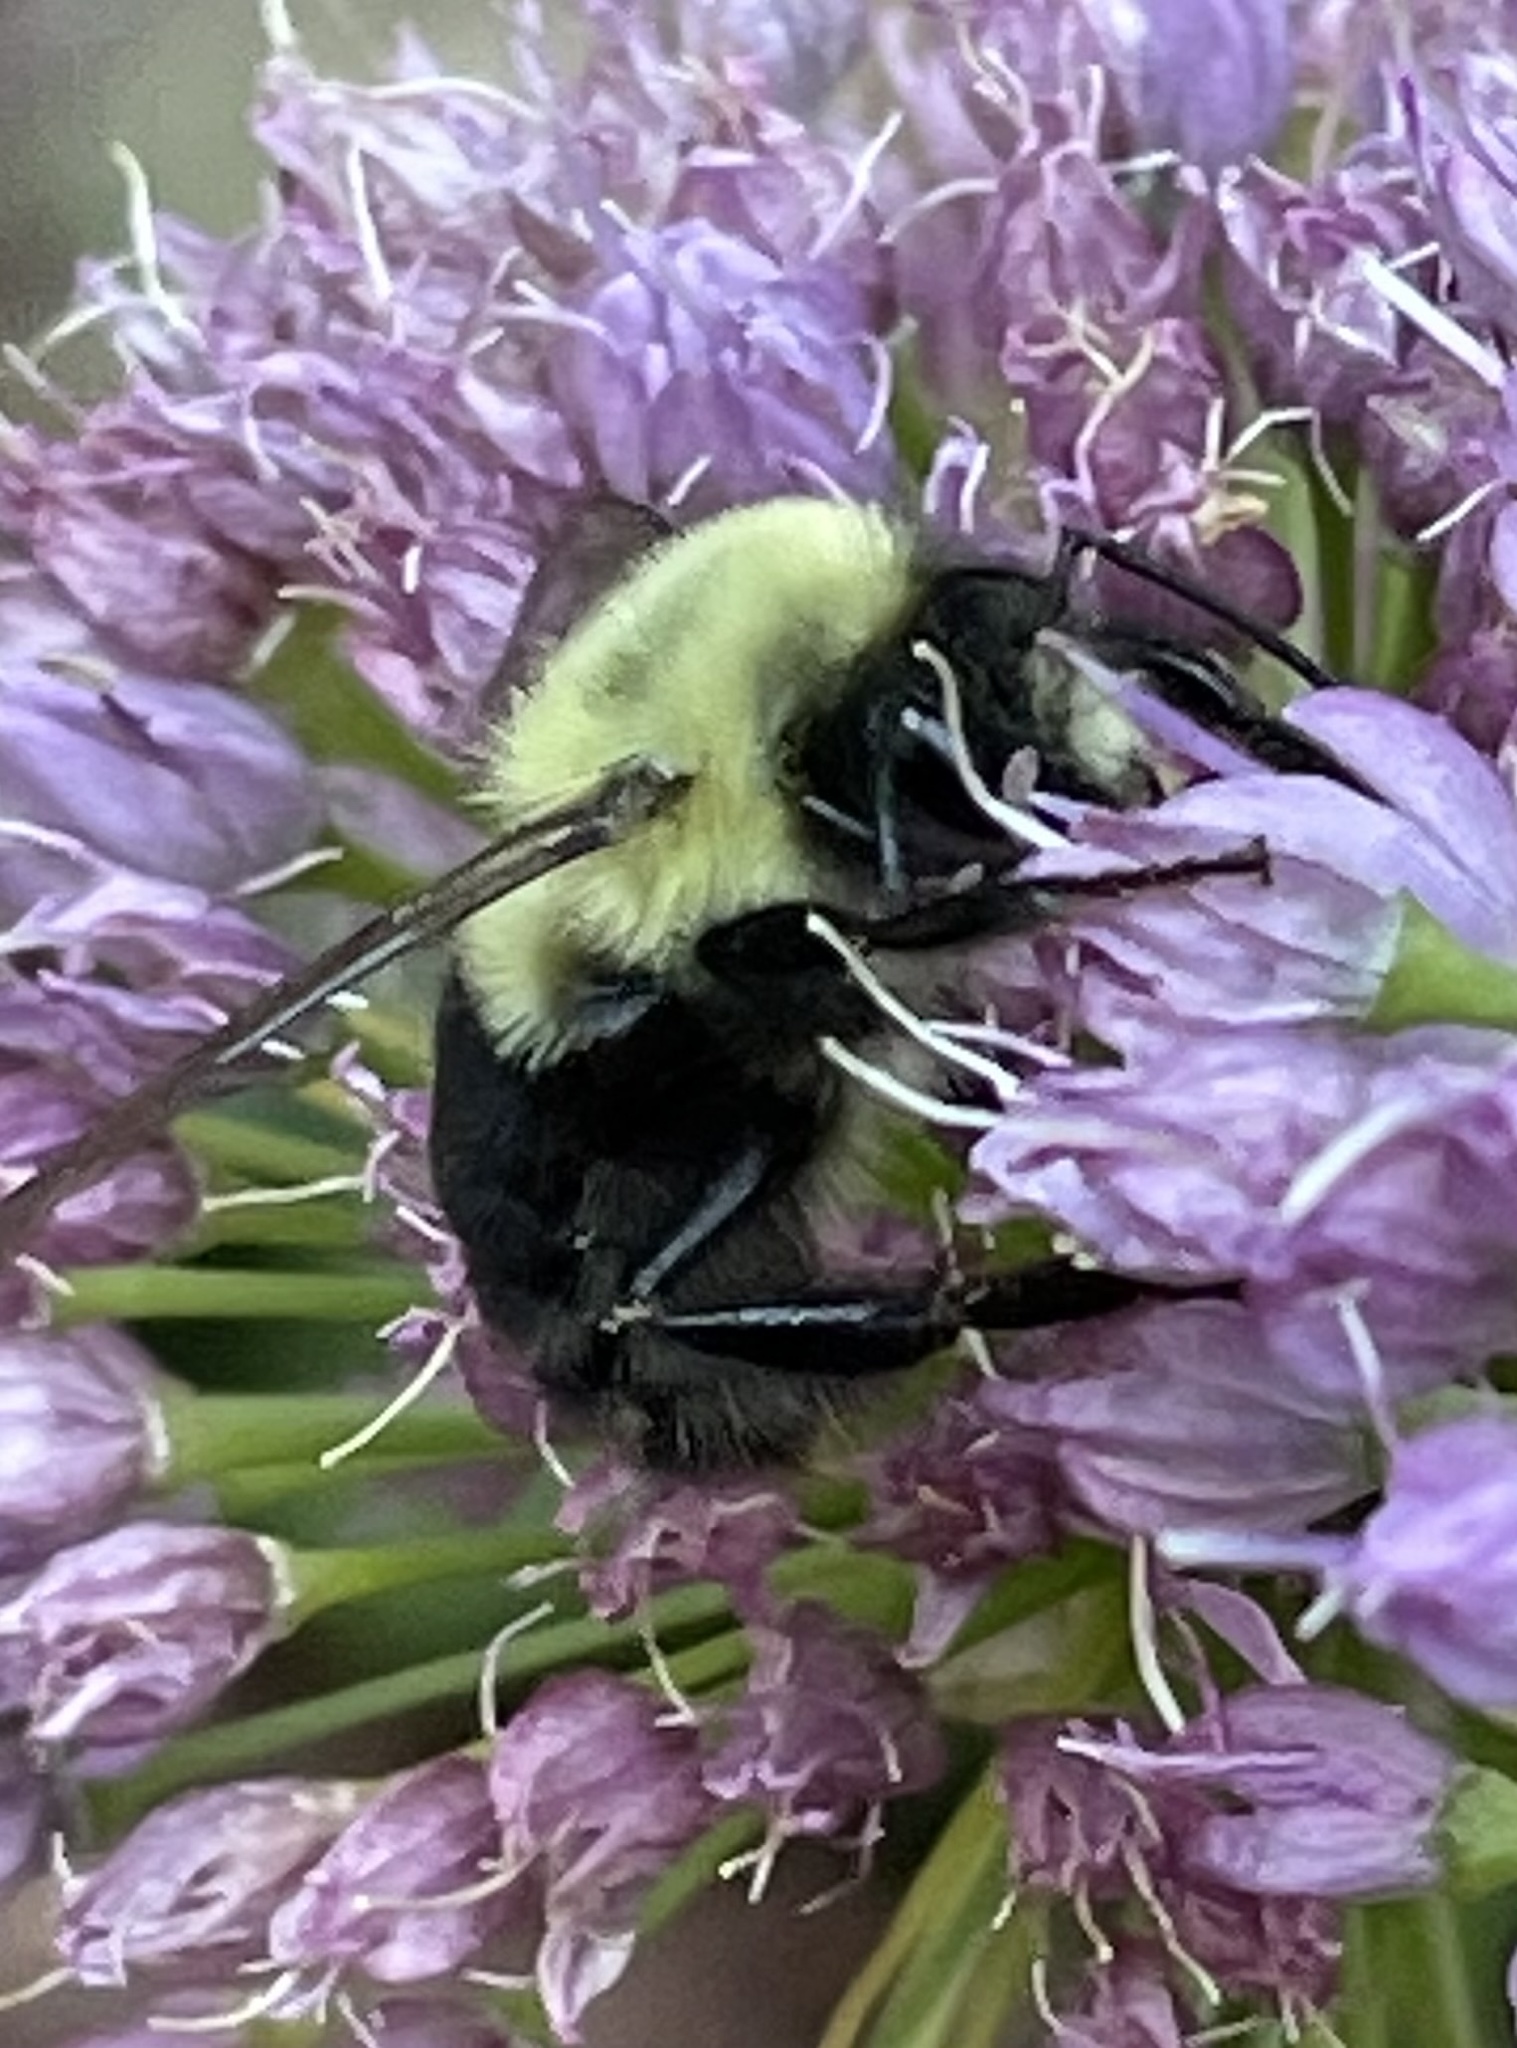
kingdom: Animalia
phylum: Arthropoda
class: Insecta
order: Hymenoptera
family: Apidae
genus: Bombus
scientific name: Bombus impatiens
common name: Common eastern bumble bee
